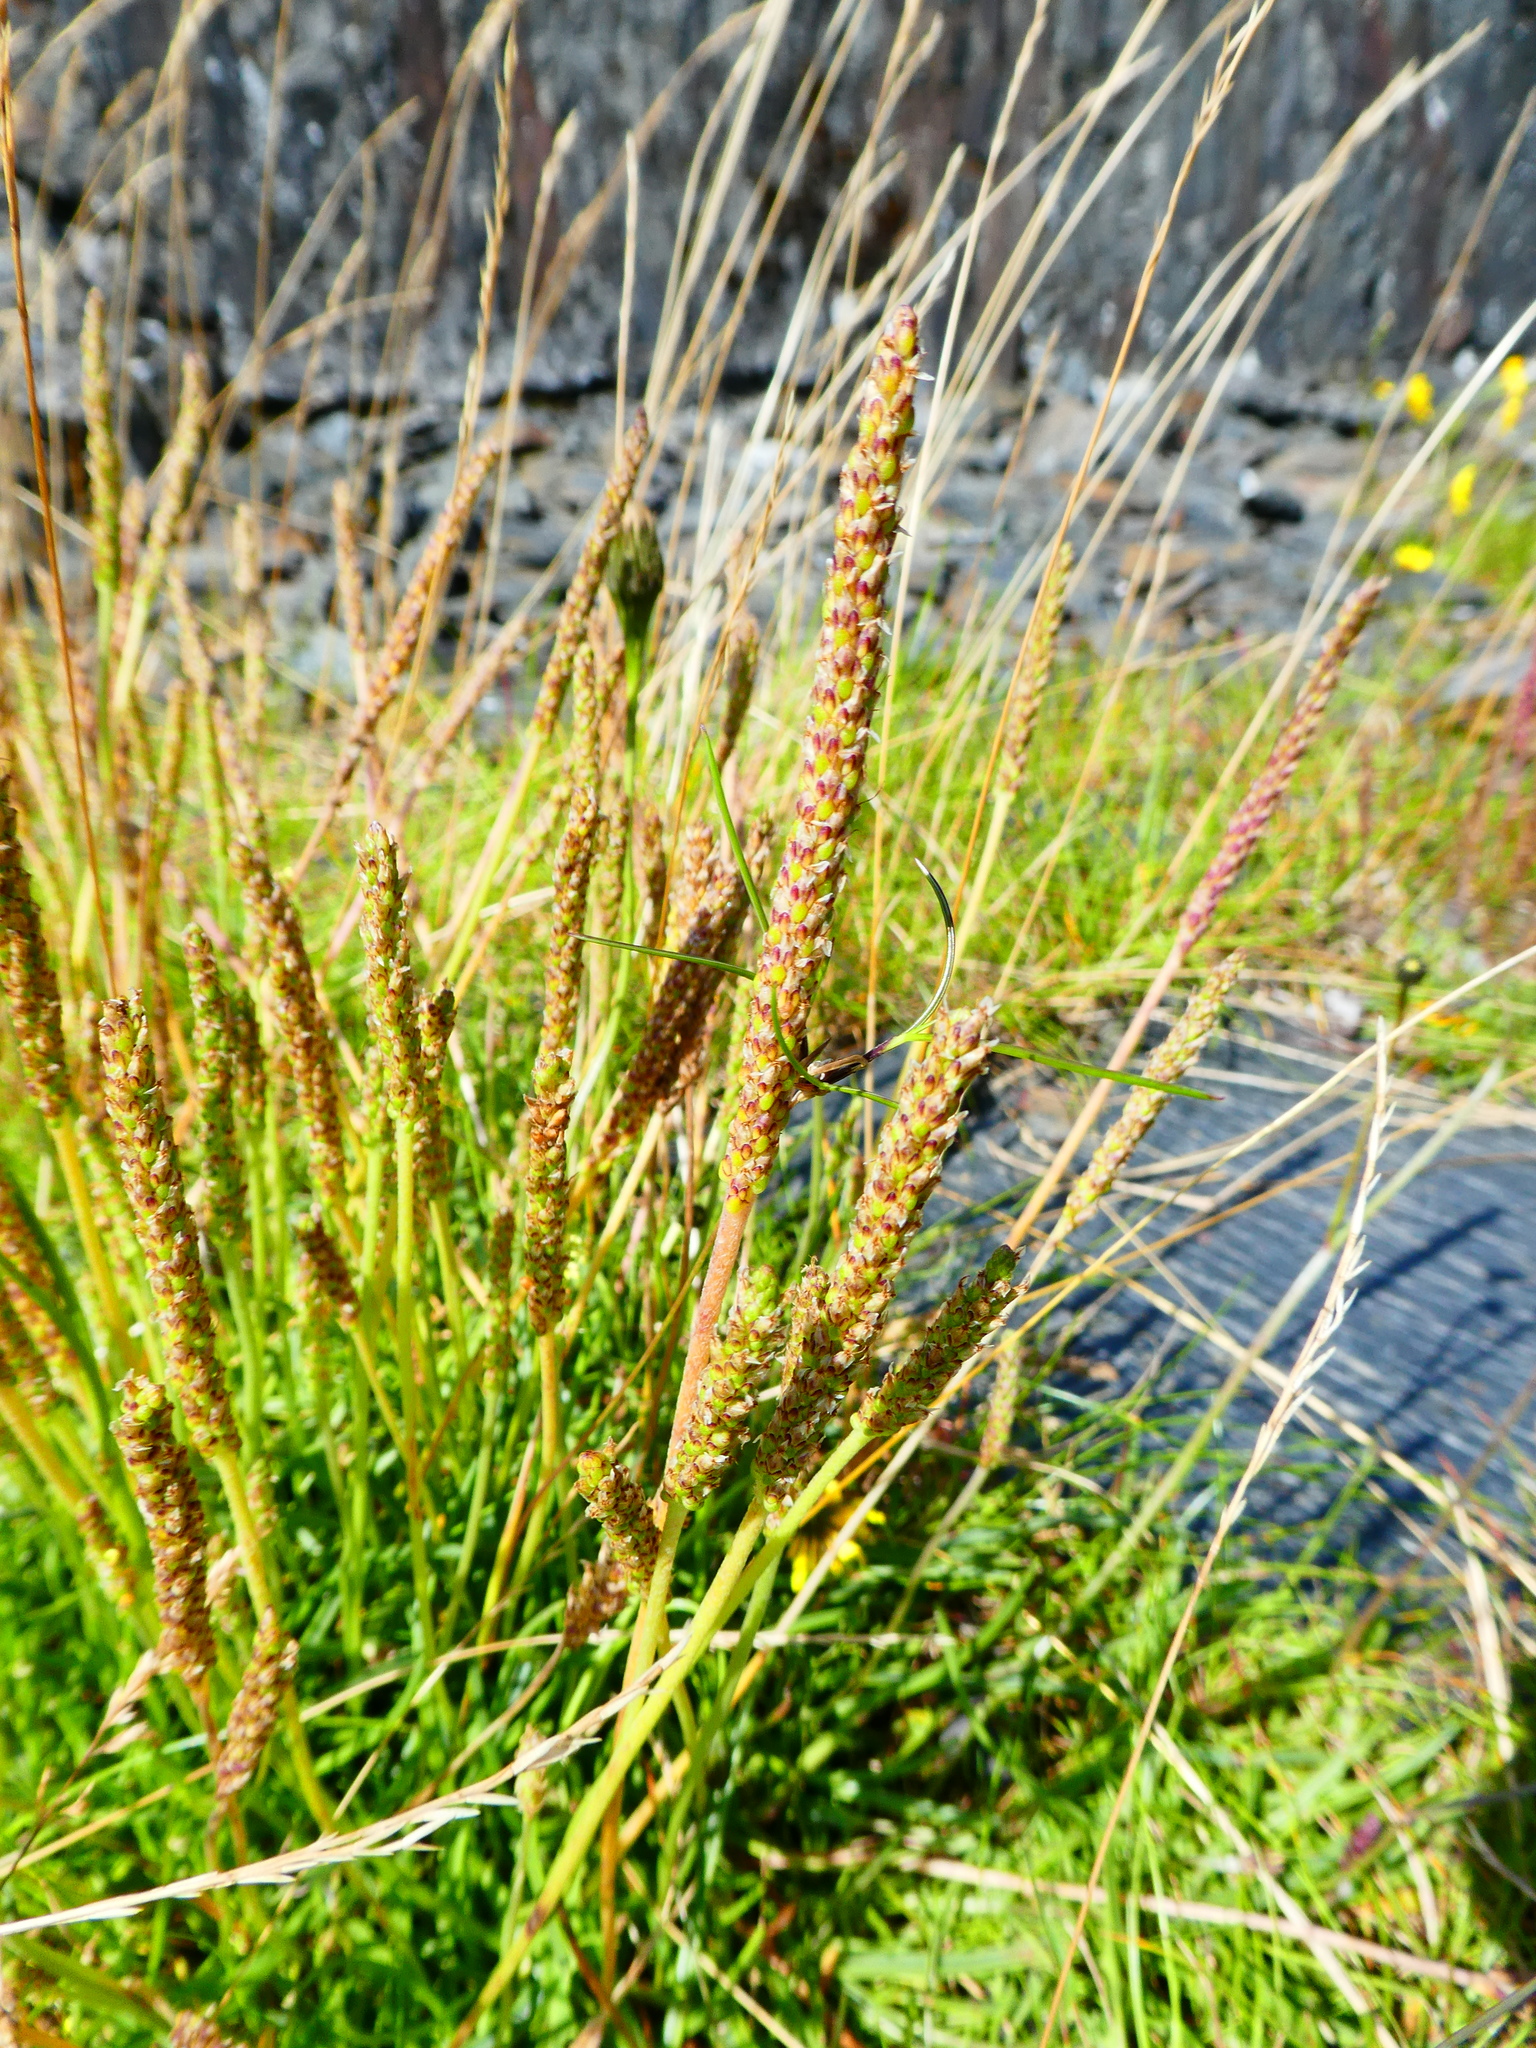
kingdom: Plantae
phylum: Tracheophyta
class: Magnoliopsida
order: Lamiales
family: Plantaginaceae
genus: Plantago
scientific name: Plantago maritima
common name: Sea plantain
